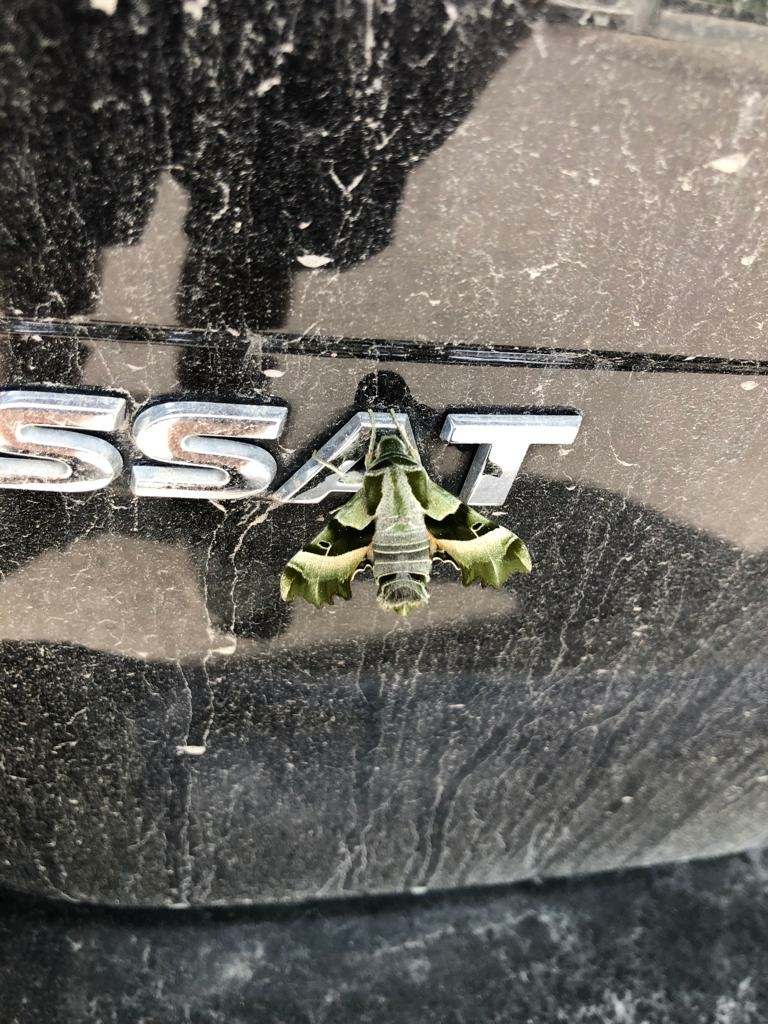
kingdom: Animalia
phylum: Arthropoda
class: Insecta
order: Lepidoptera
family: Sphingidae
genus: Proserpinus
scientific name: Proserpinus proserpina
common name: Willowherb hawkmoth
